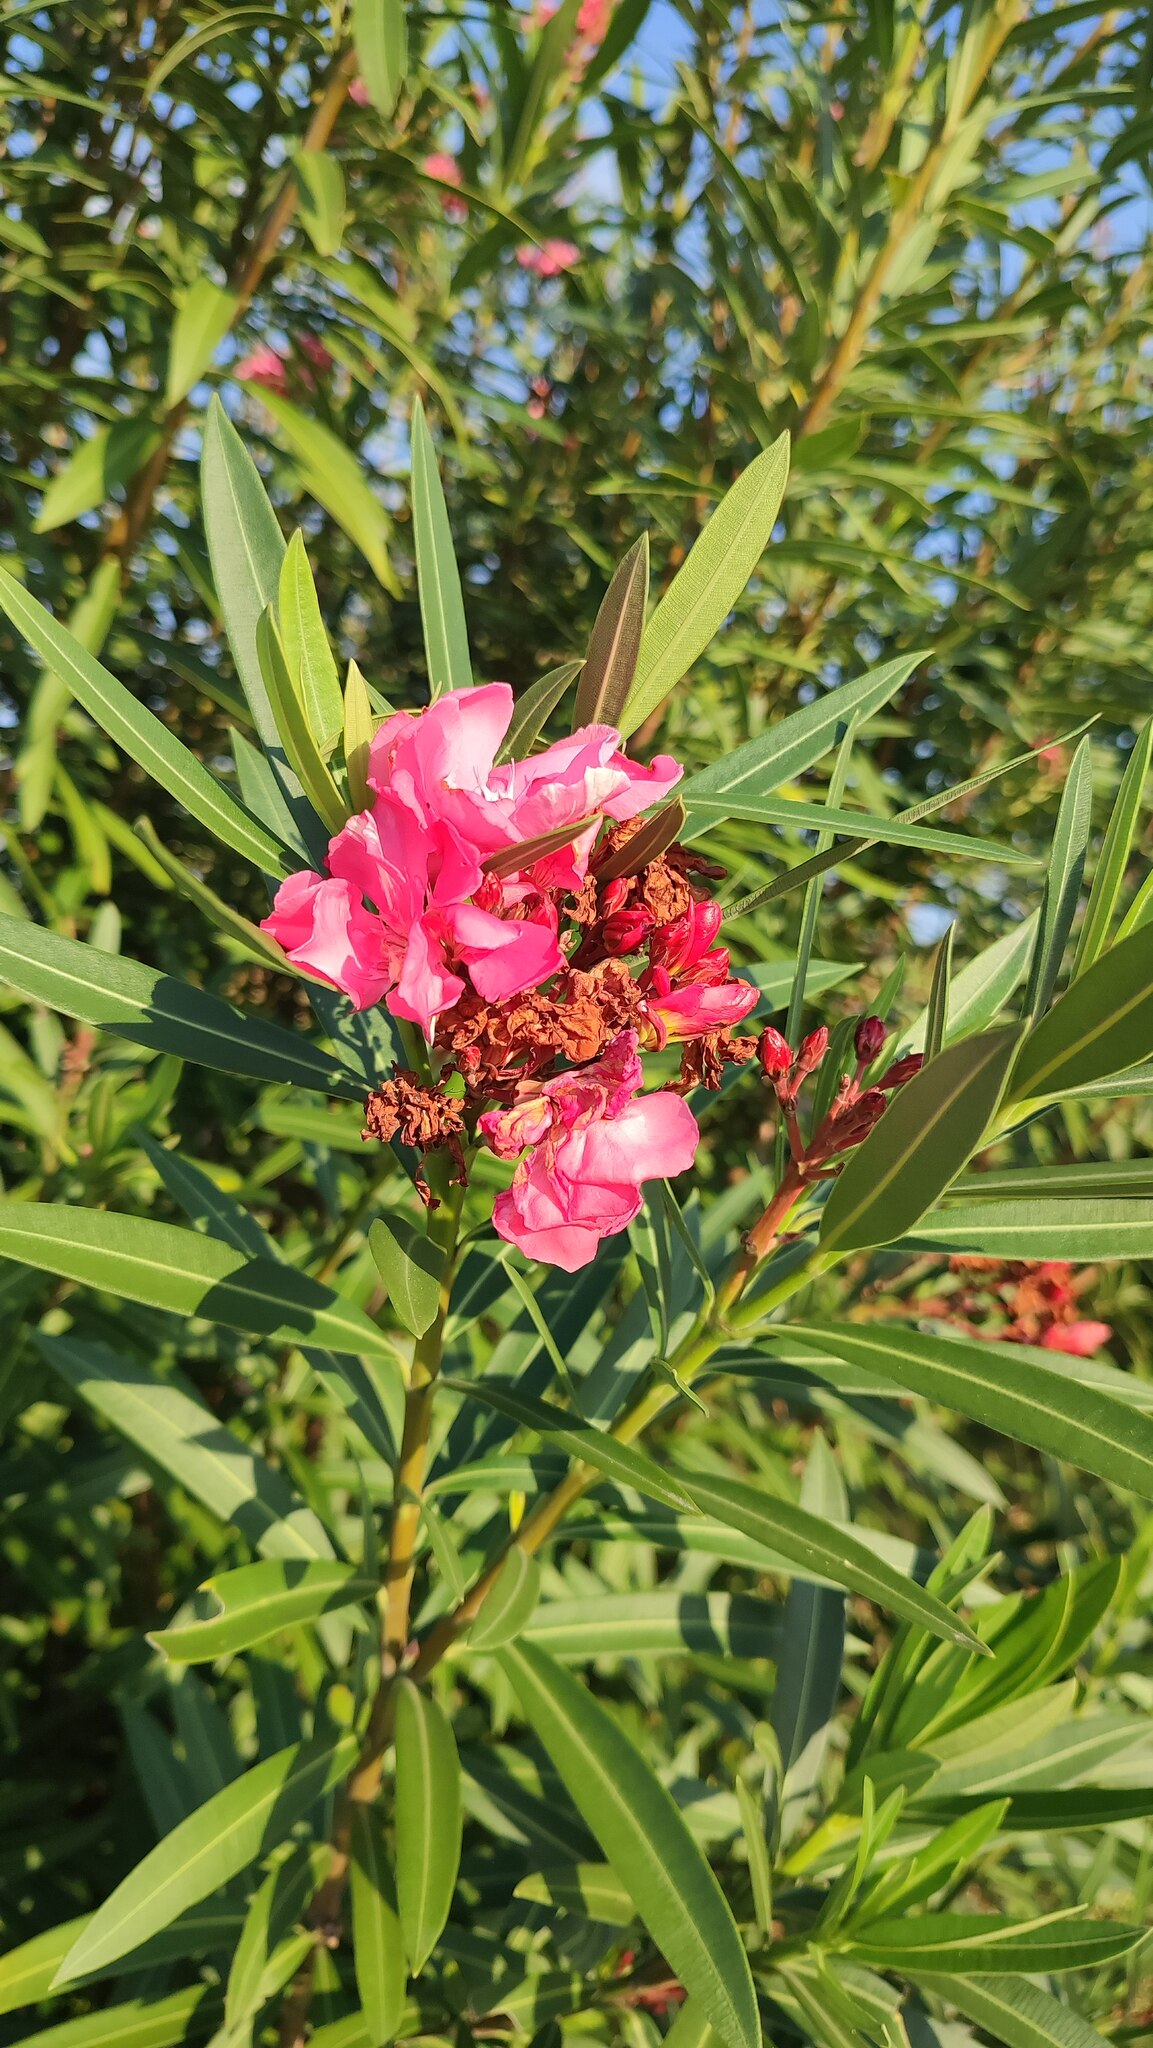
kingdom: Plantae
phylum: Tracheophyta
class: Magnoliopsida
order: Gentianales
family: Apocynaceae
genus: Nerium
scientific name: Nerium oleander
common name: Oleander
